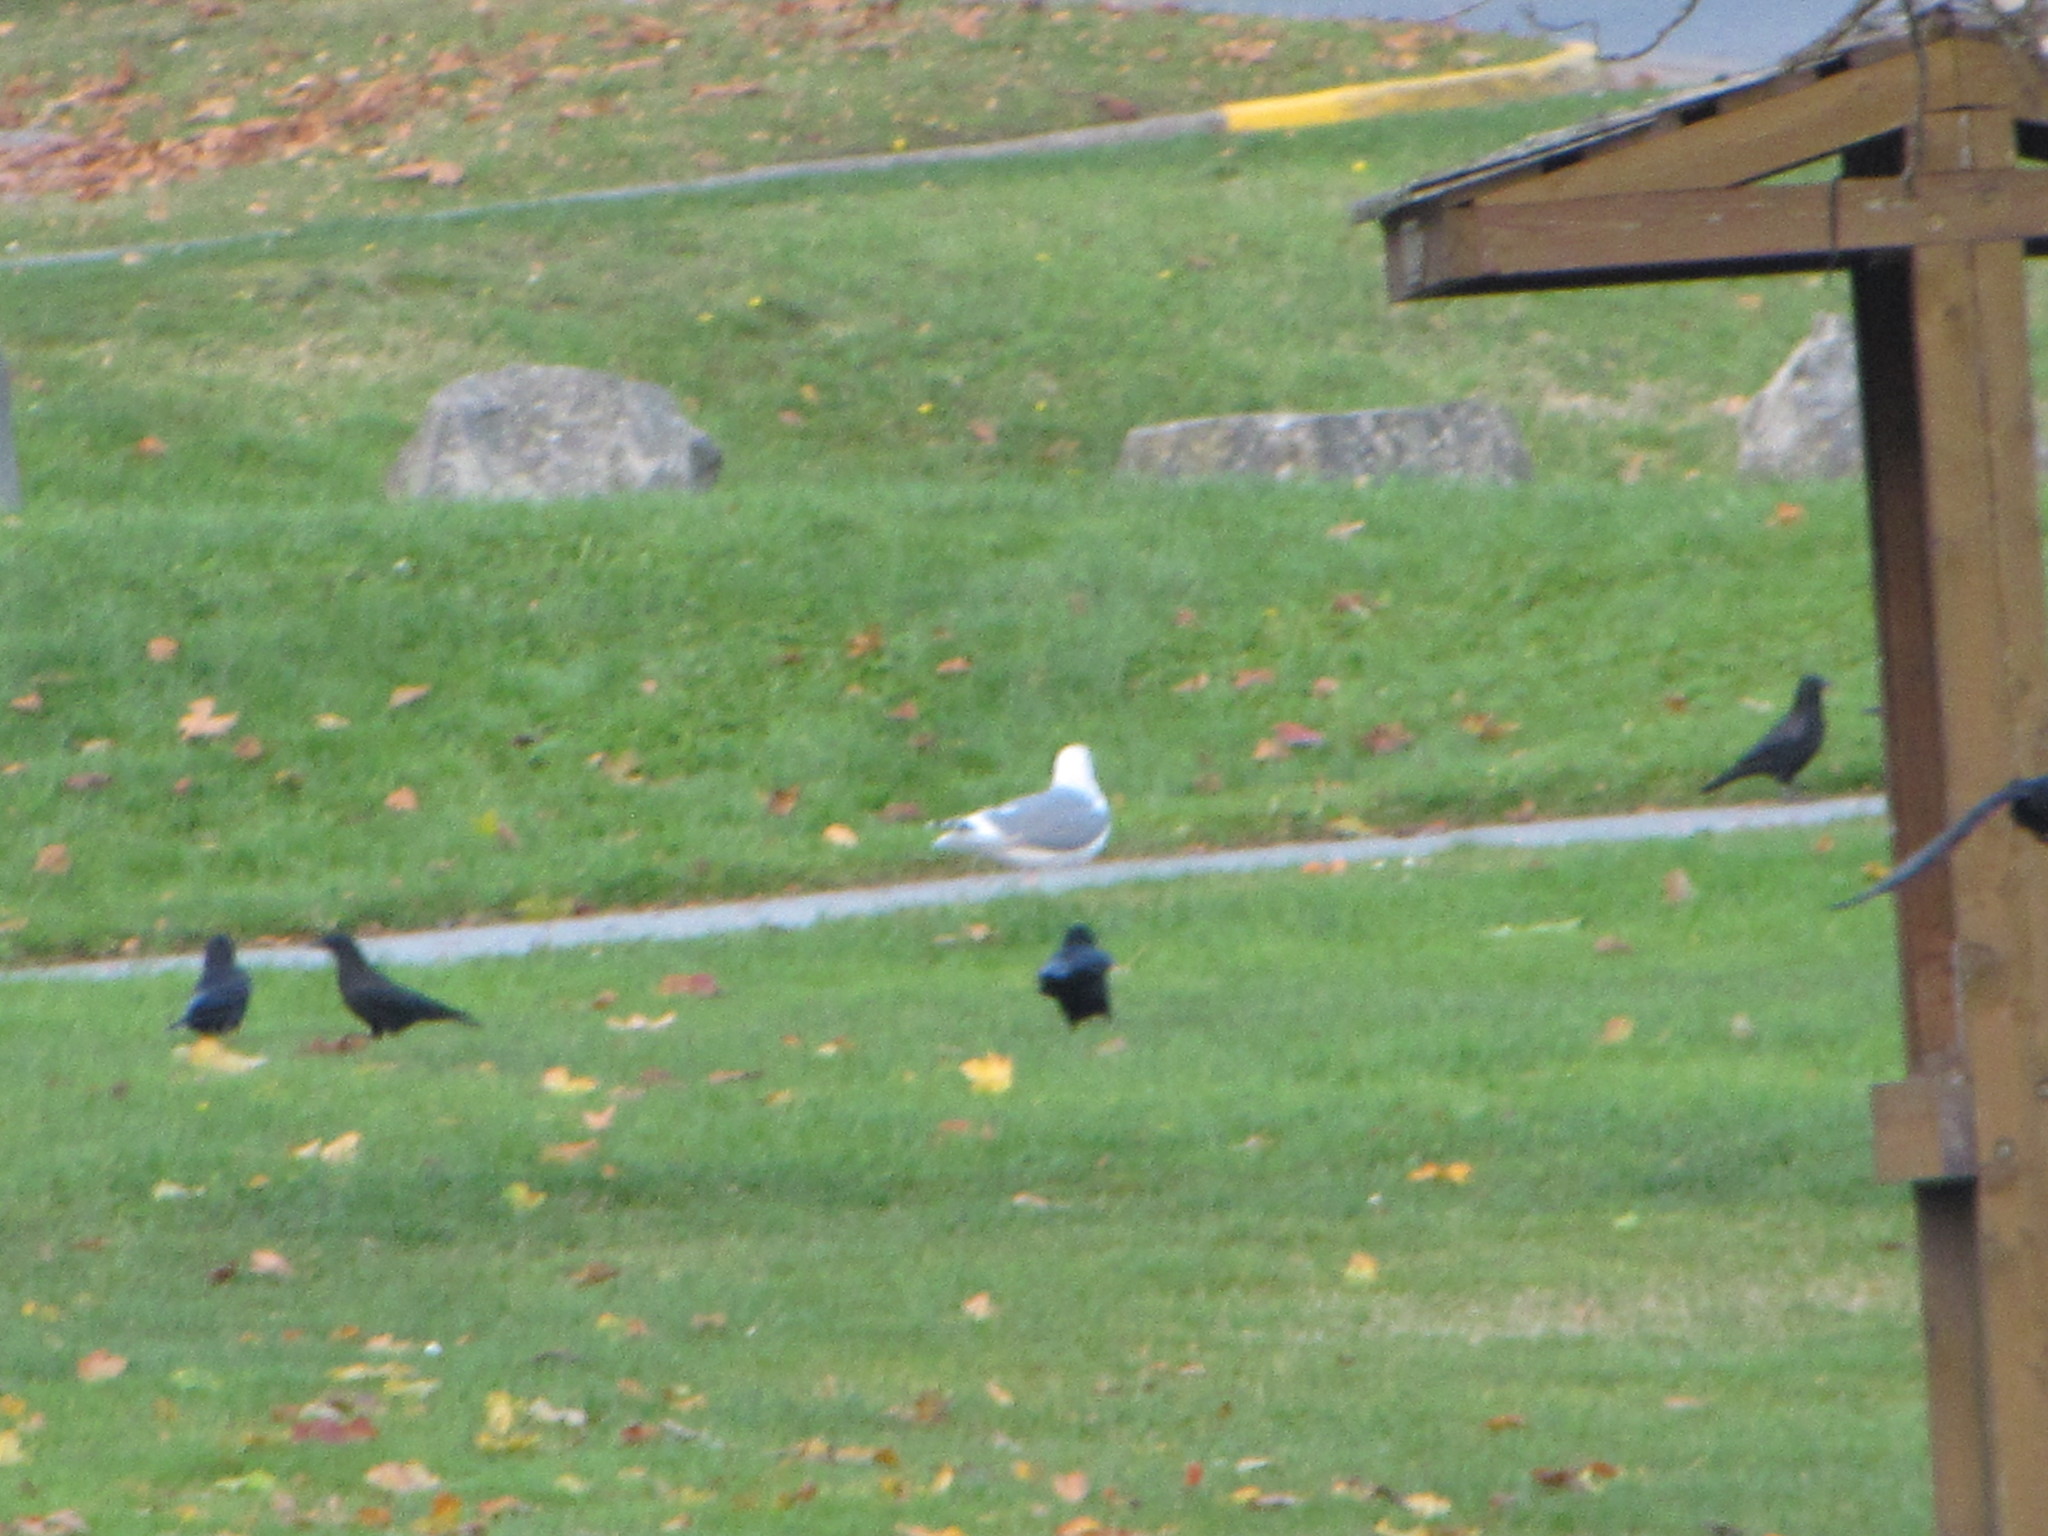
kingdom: Animalia
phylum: Chordata
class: Aves
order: Charadriiformes
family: Laridae
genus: Larus
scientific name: Larus
